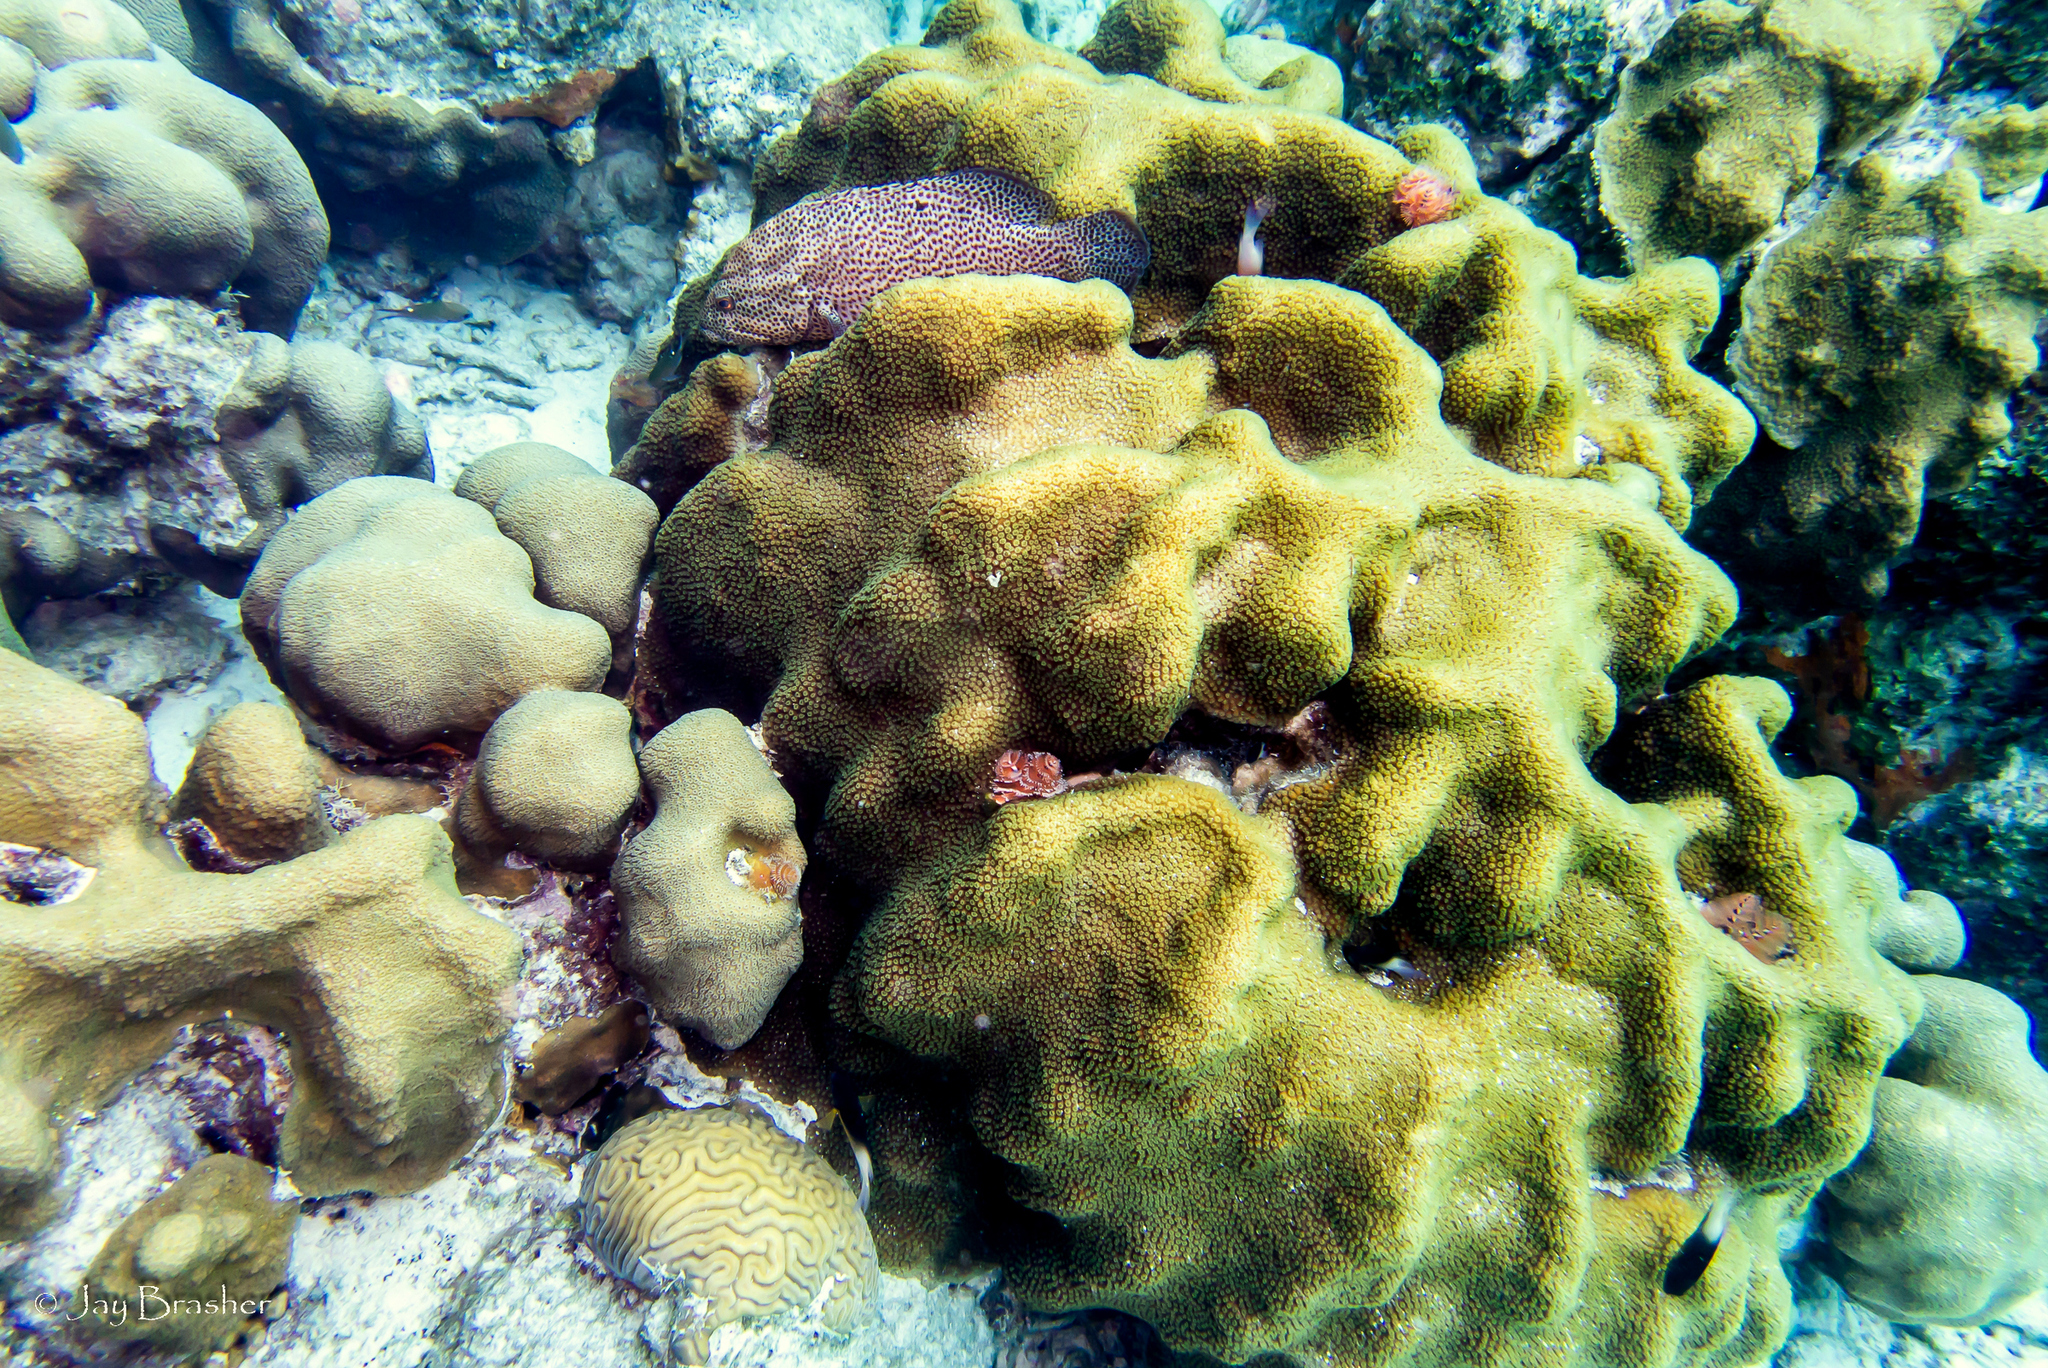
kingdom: Animalia
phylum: Cnidaria
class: Anthozoa
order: Scleractinia
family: Merulinidae
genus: Orbicella
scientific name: Orbicella faveolata
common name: Mountainous star coral
